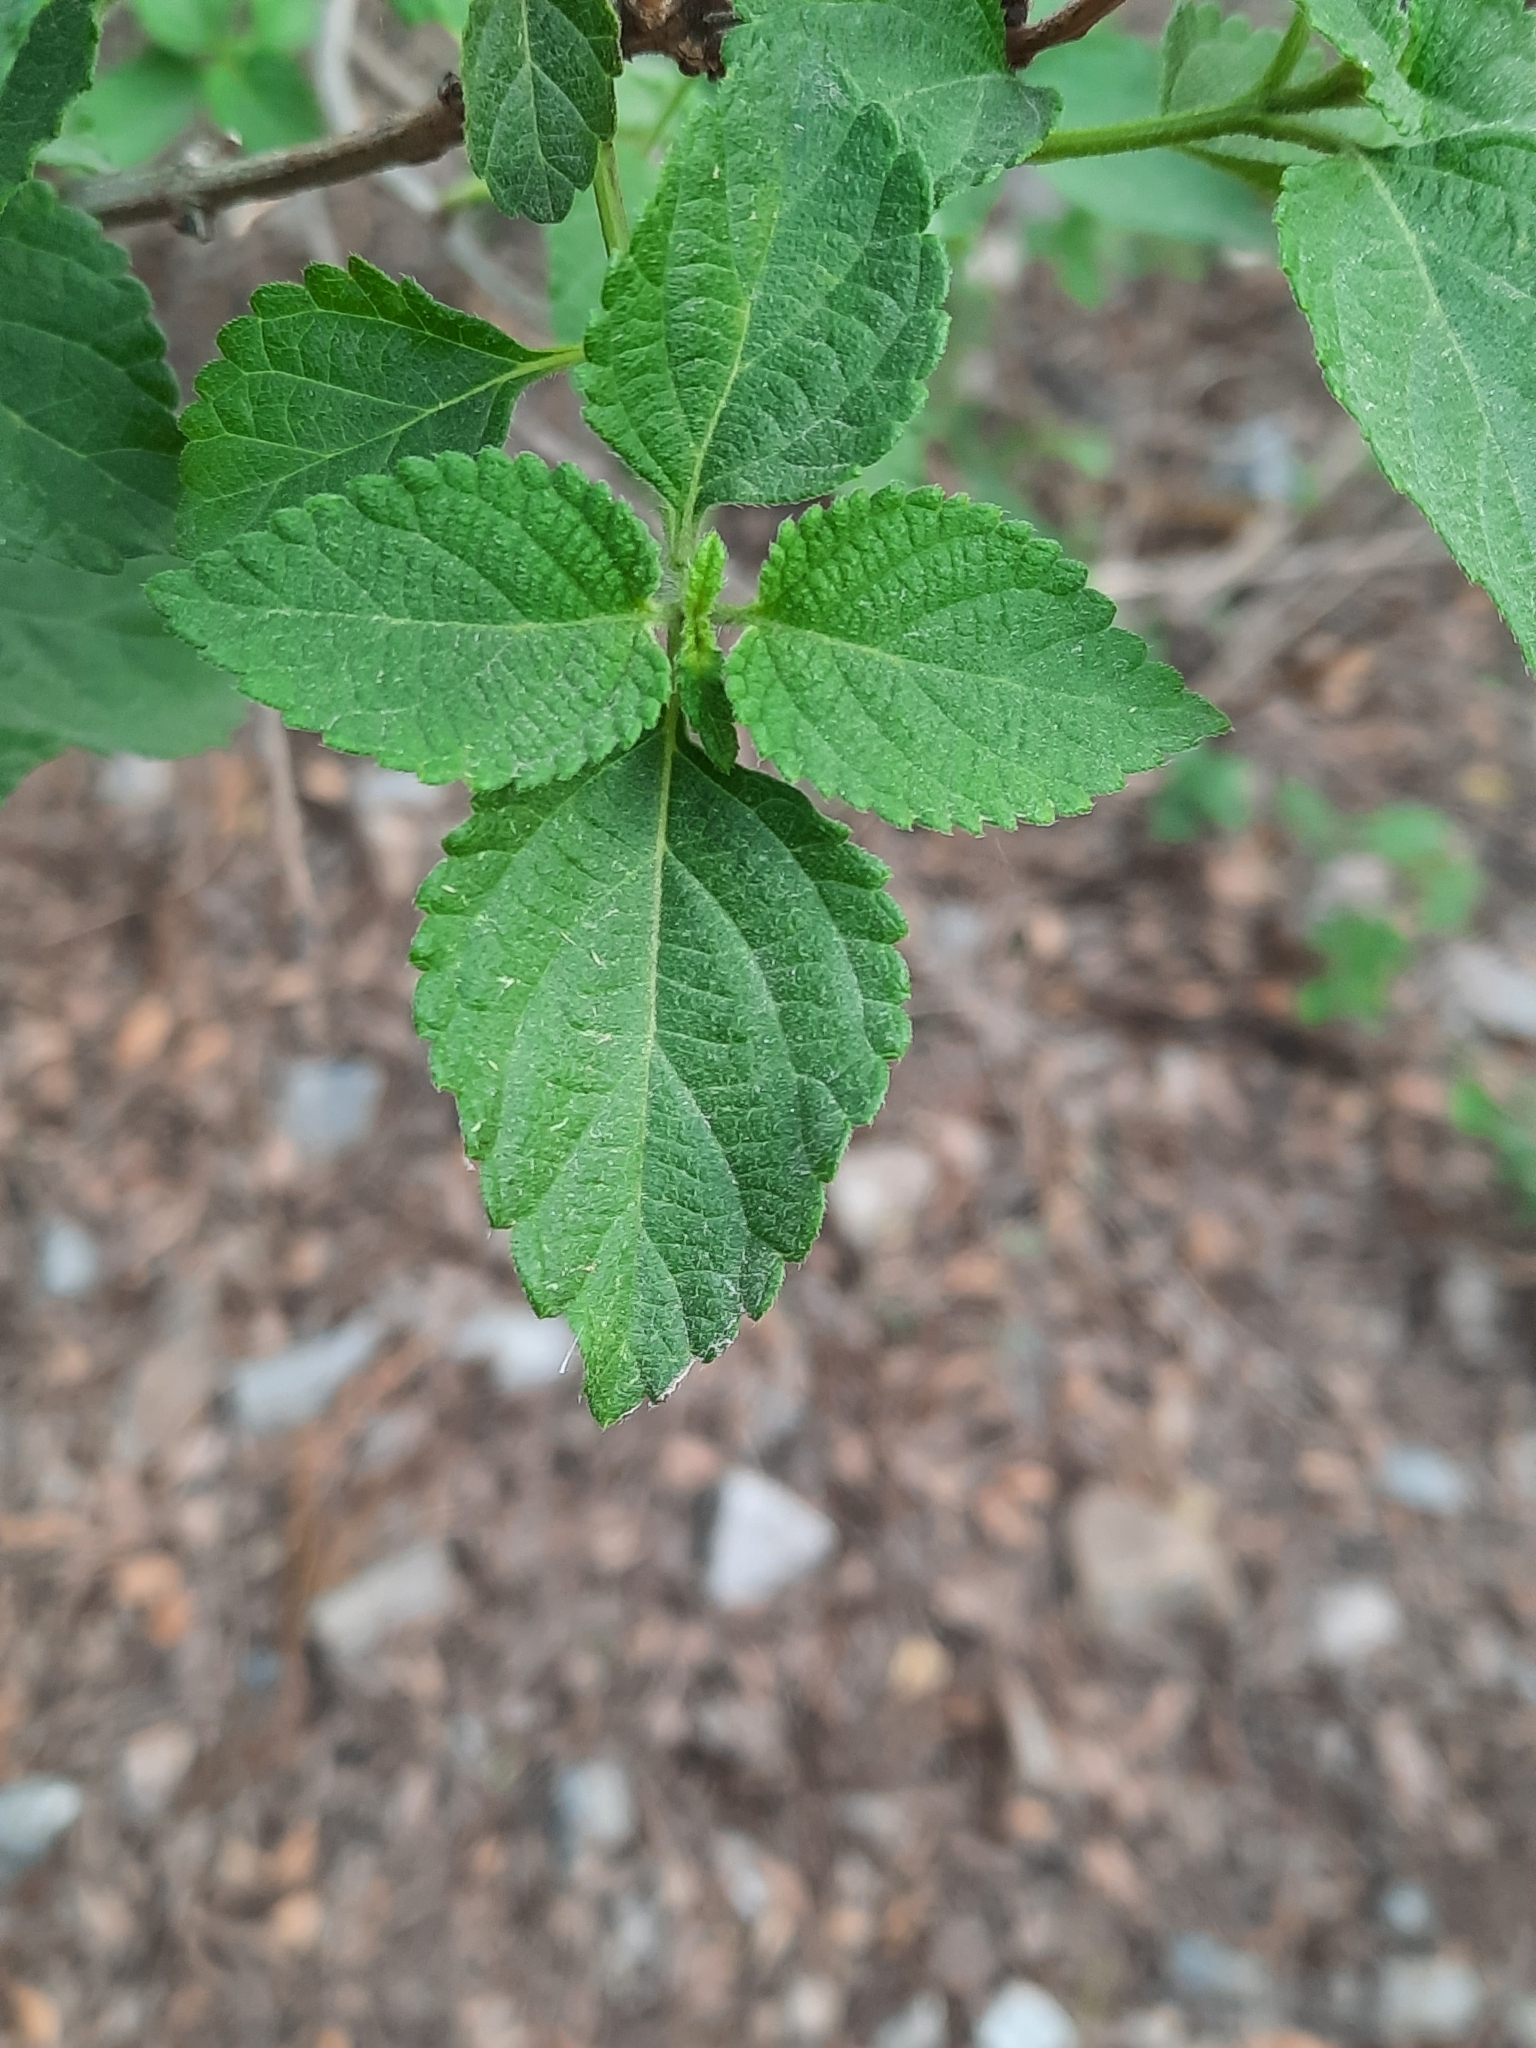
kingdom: Plantae
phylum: Tracheophyta
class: Magnoliopsida
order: Lamiales
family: Verbenaceae
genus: Lantana
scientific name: Lantana camara
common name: Lantana
